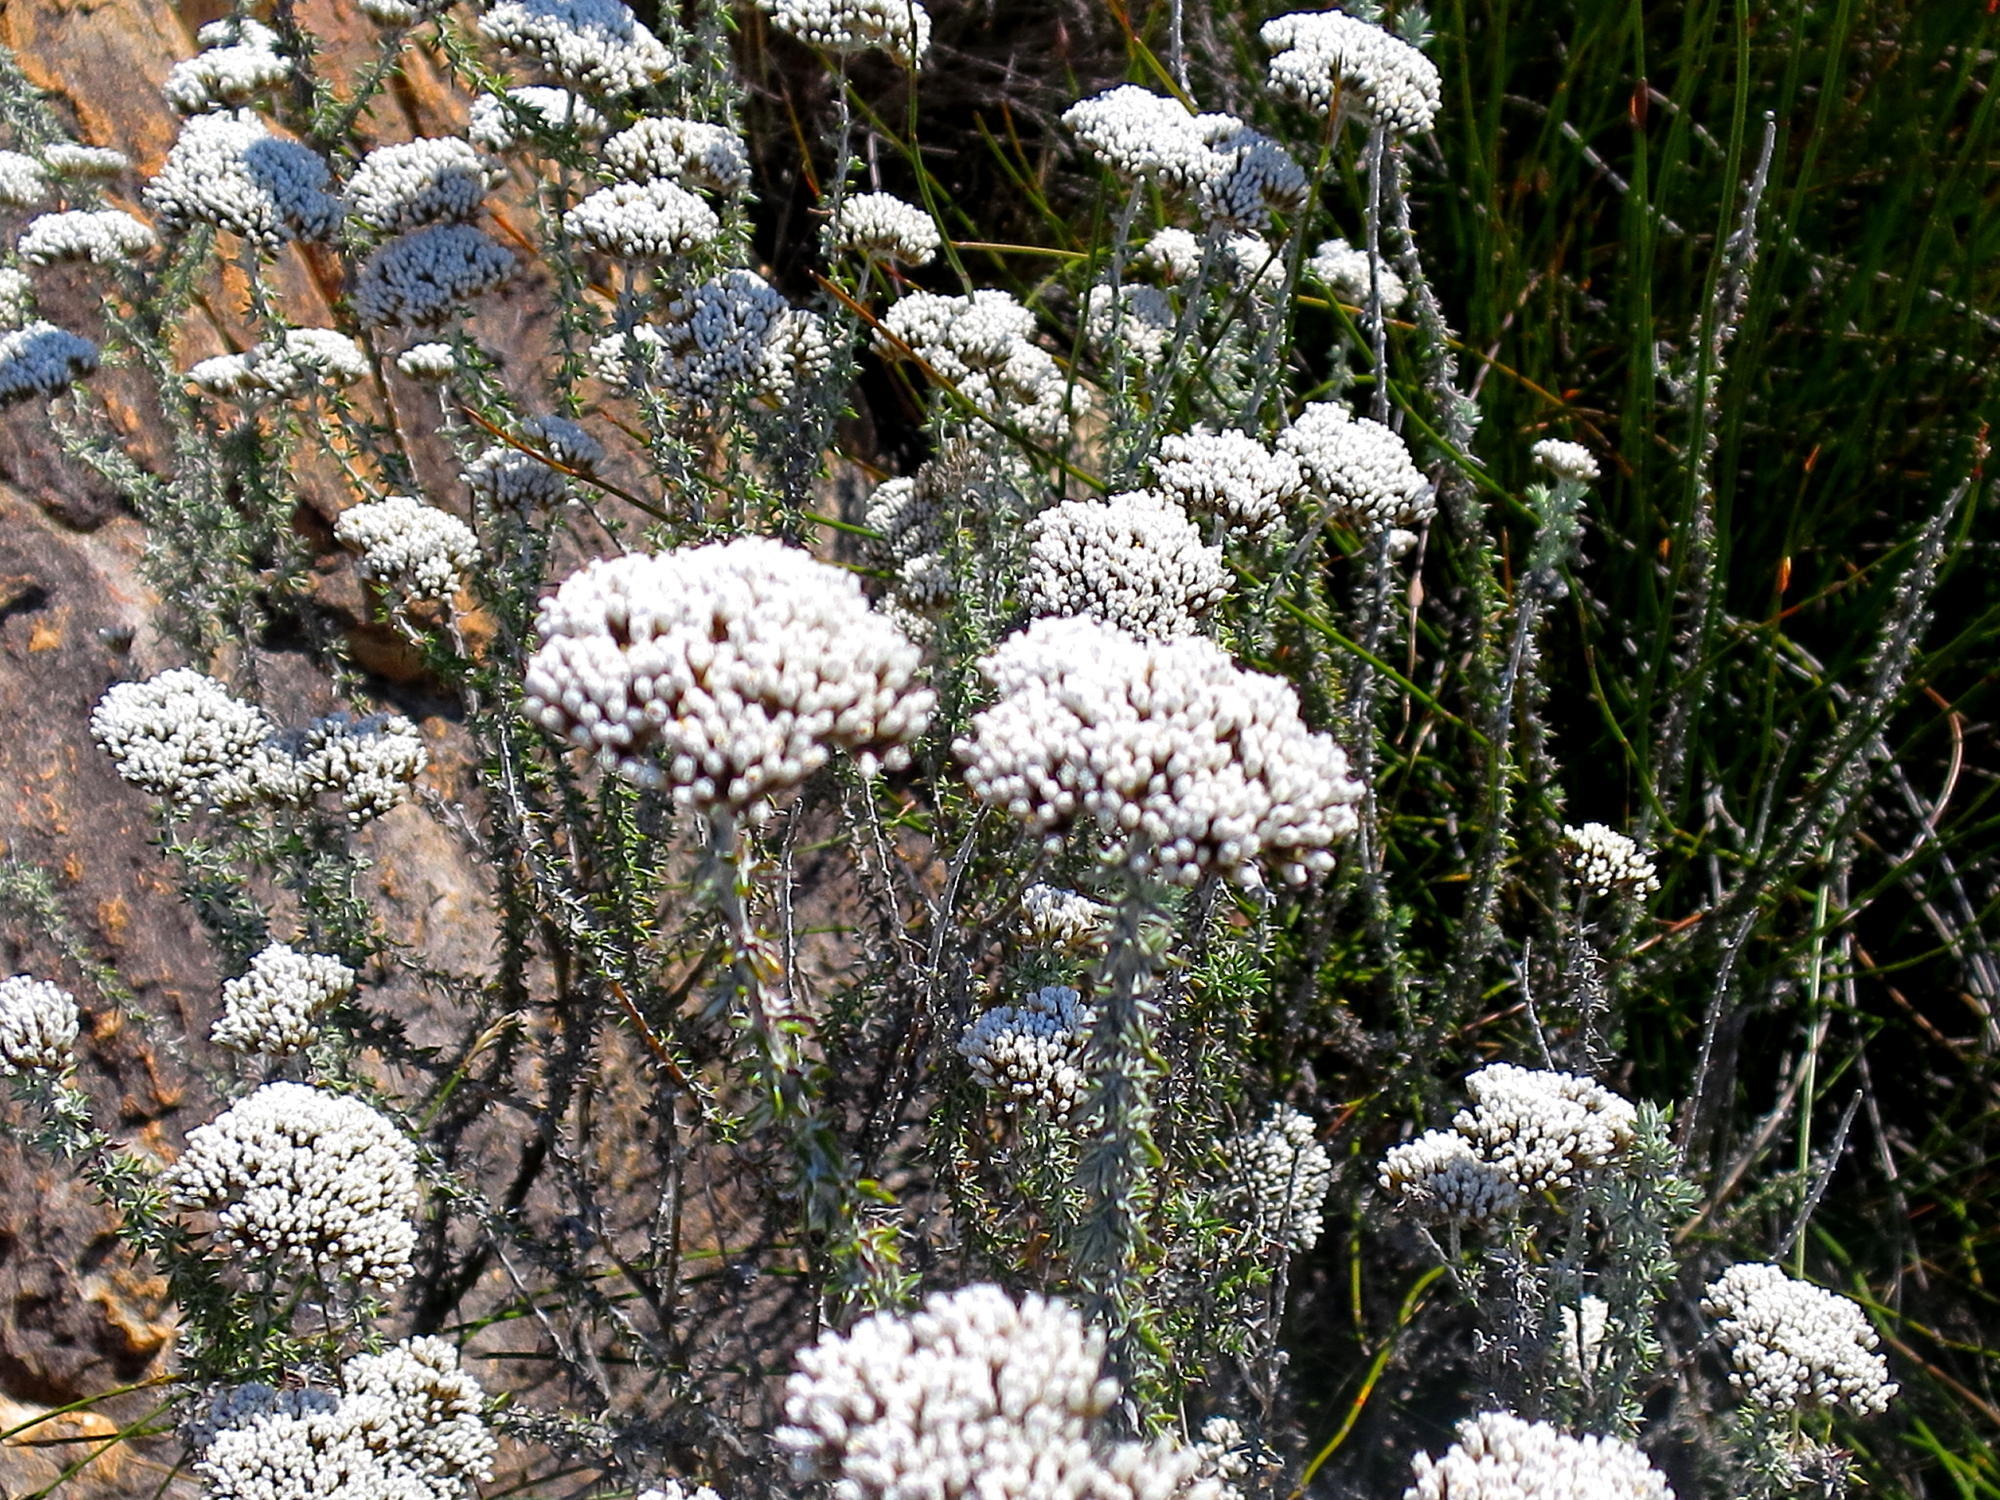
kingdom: Plantae
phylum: Tracheophyta
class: Magnoliopsida
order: Asterales
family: Asteraceae
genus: Metalasia
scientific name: Metalasia densa
